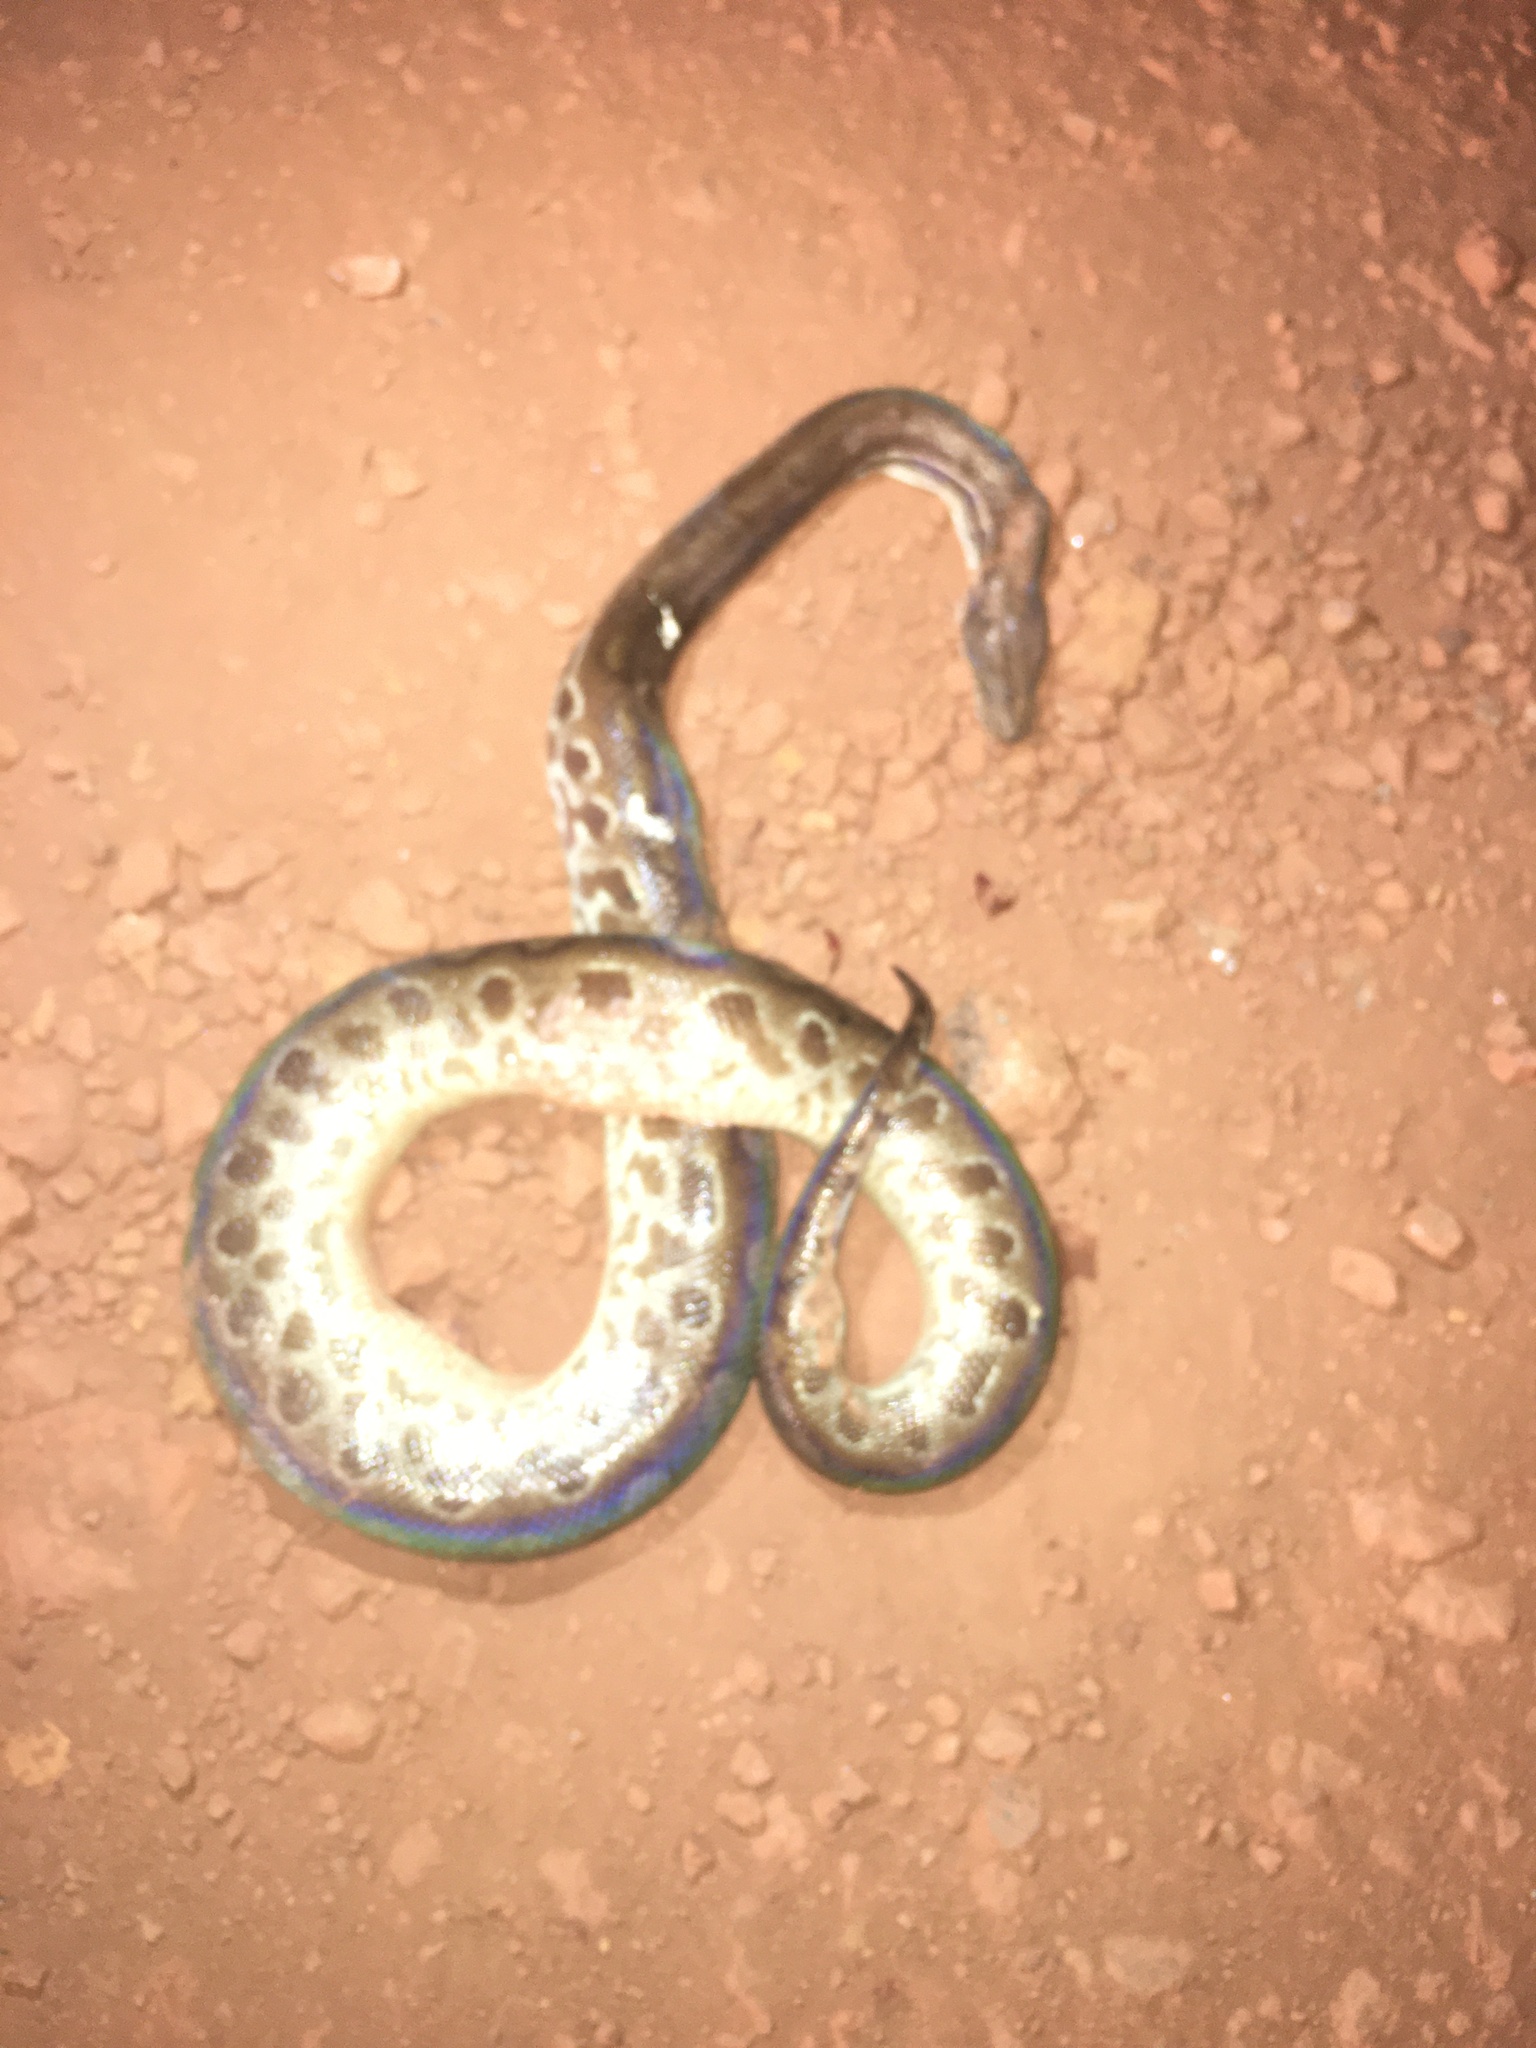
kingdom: Animalia
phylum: Chordata
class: Squamata
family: Boidae
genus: Epicrates
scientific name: Epicrates crassus
